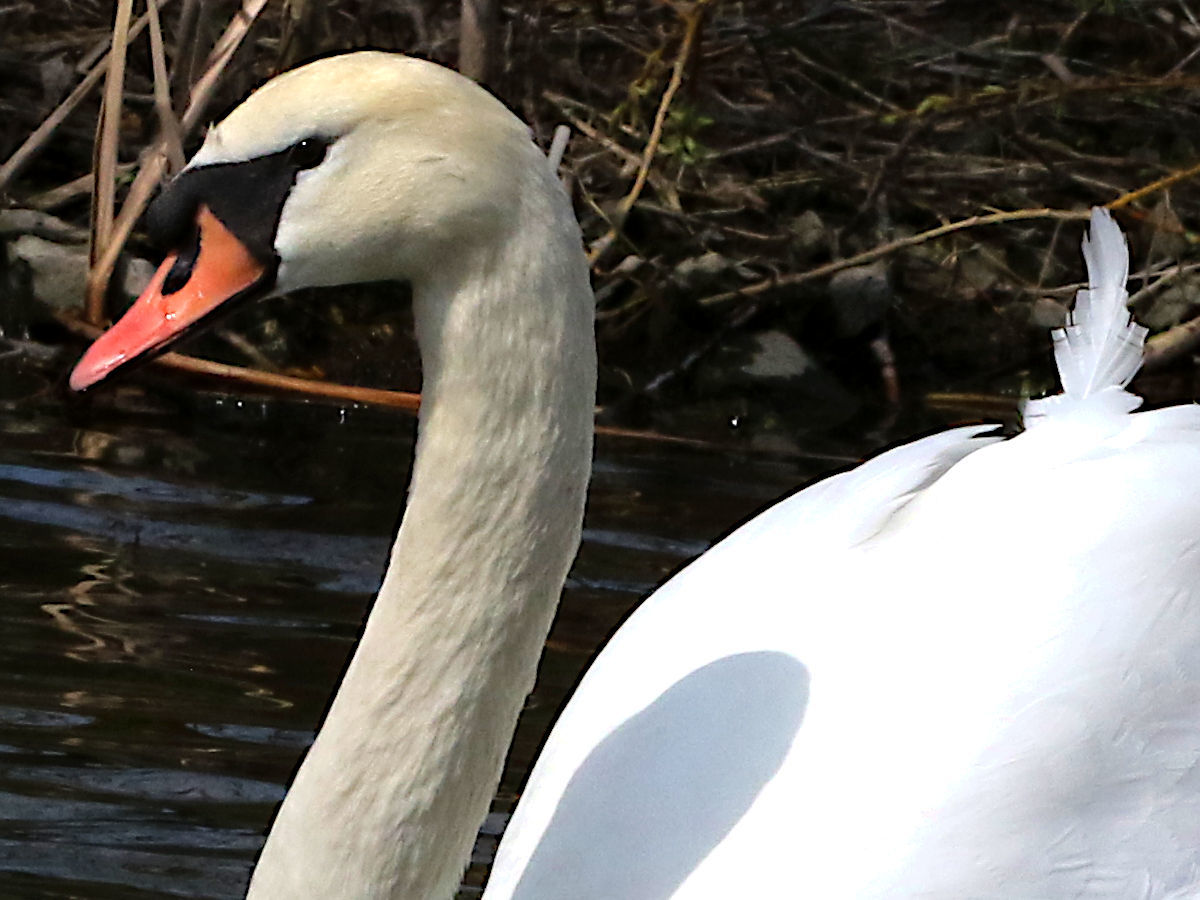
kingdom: Animalia
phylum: Chordata
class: Aves
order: Anseriformes
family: Anatidae
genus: Cygnus
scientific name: Cygnus olor
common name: Mute swan
